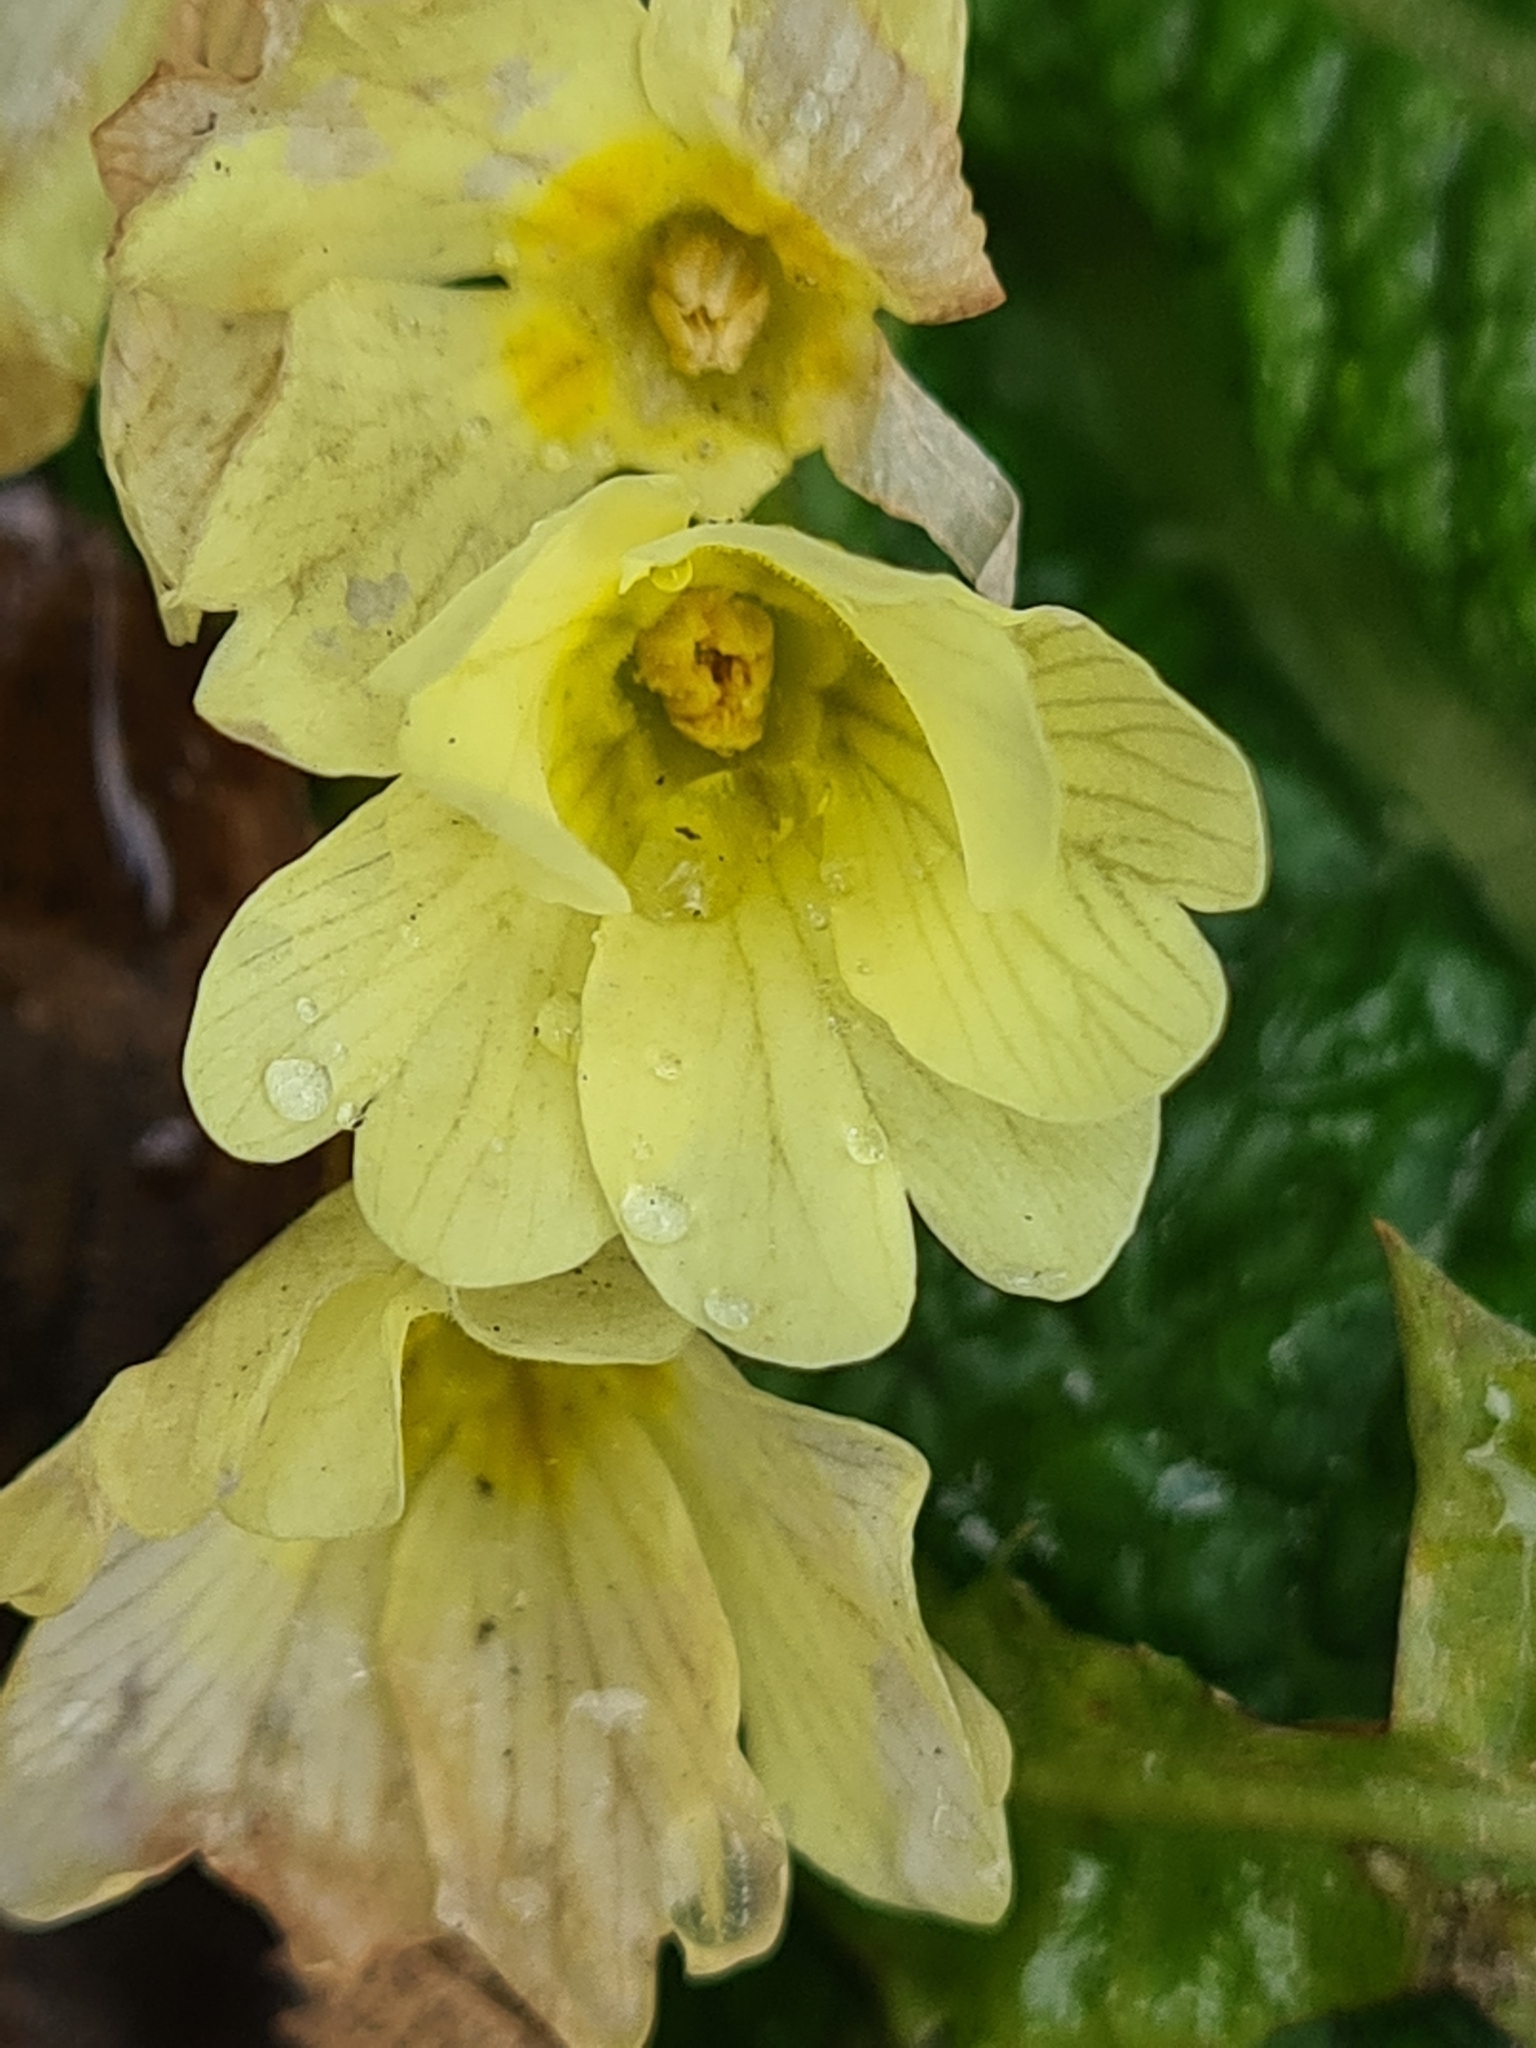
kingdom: Plantae
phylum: Tracheophyta
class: Magnoliopsida
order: Ericales
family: Primulaceae
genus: Primula
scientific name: Primula vulgaris
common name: Primrose
